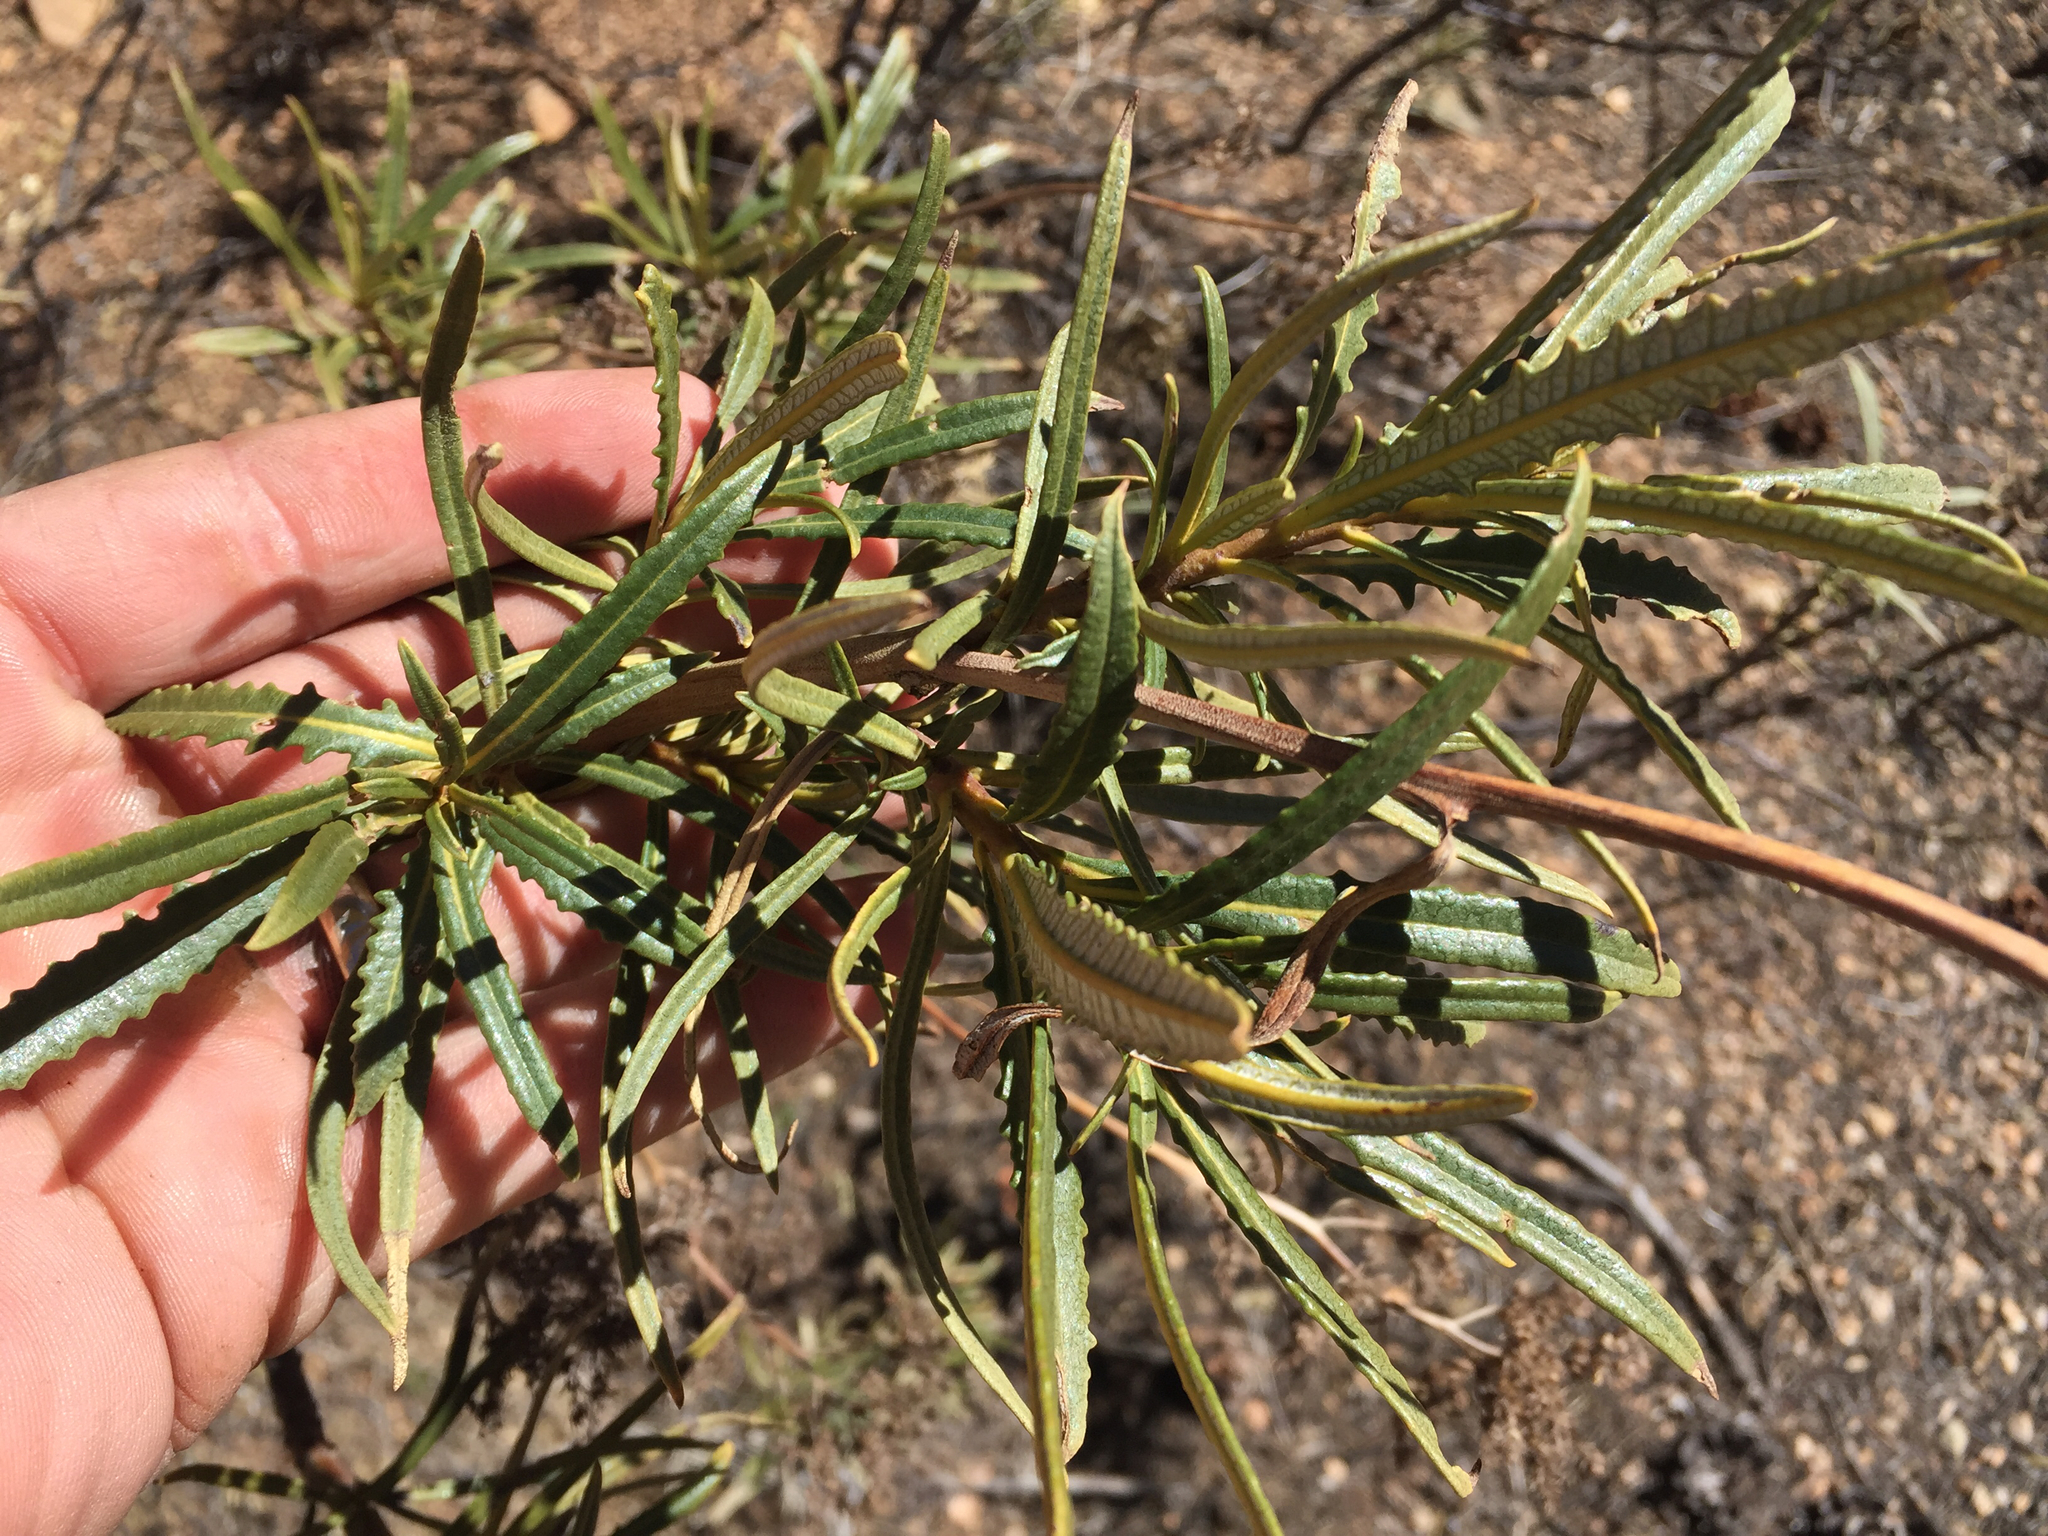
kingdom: Plantae
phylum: Tracheophyta
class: Magnoliopsida
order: Boraginales
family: Namaceae
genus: Eriodictyon
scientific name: Eriodictyon angustifolium
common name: Narrow-leaf yerba santa
